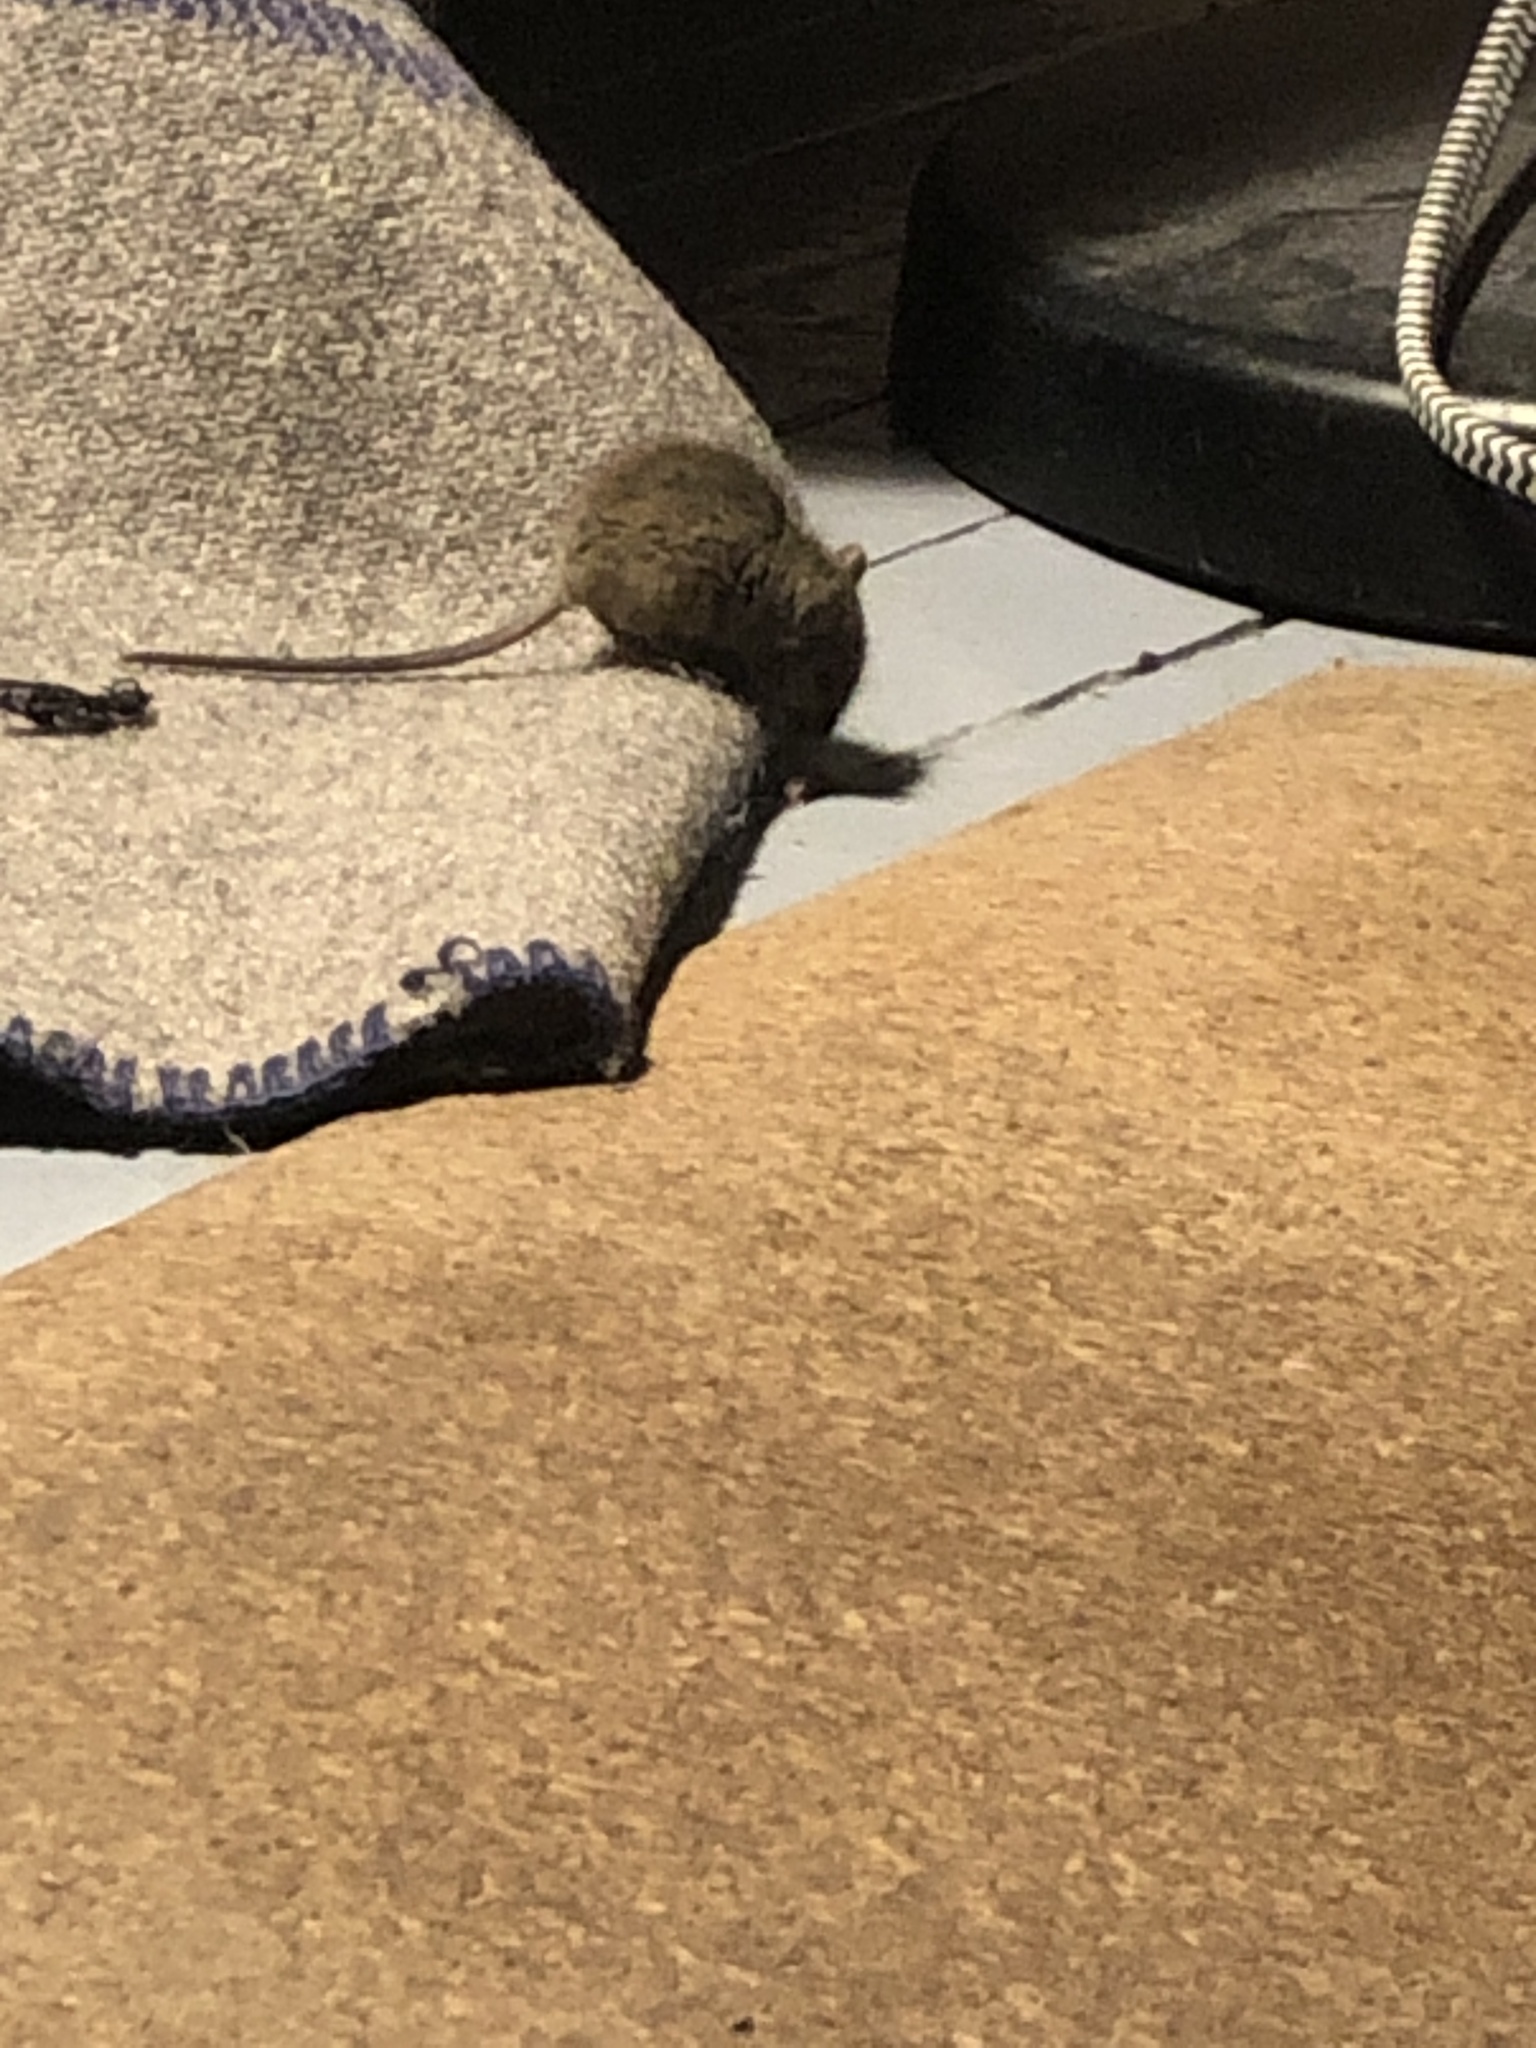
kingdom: Animalia
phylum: Chordata
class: Mammalia
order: Rodentia
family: Muridae
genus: Mus
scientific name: Mus musculus
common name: House mouse
